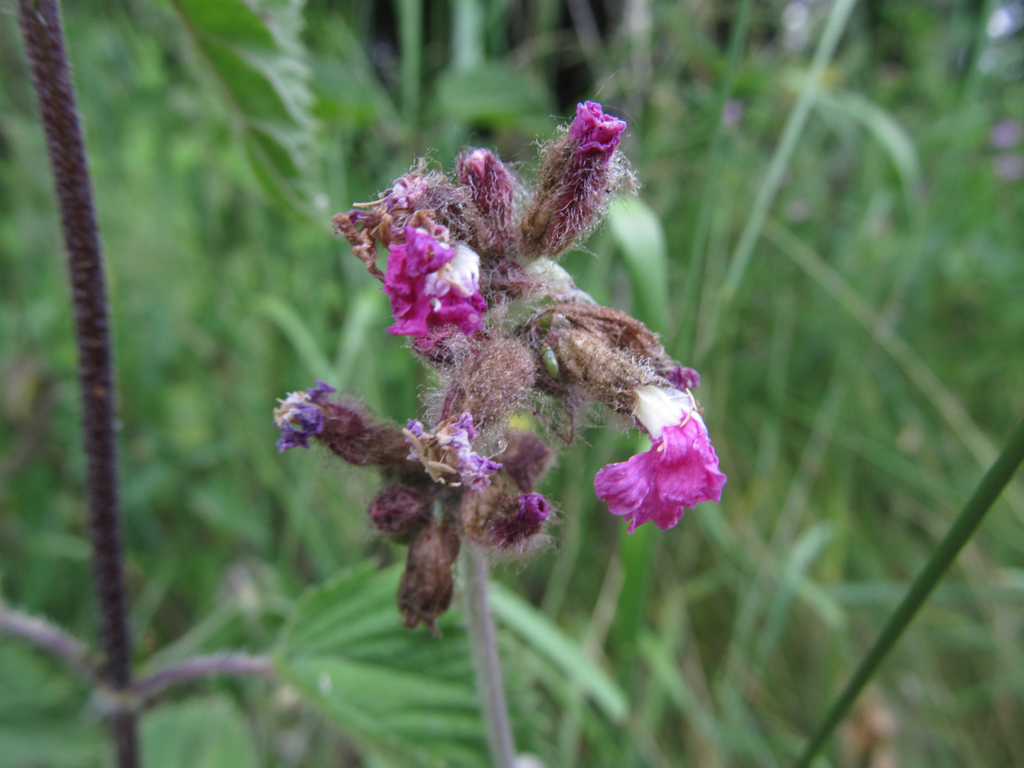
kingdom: Plantae
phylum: Tracheophyta
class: Magnoliopsida
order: Caryophyllales
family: Caryophyllaceae
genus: Silene
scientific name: Silene dioica
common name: Red campion
